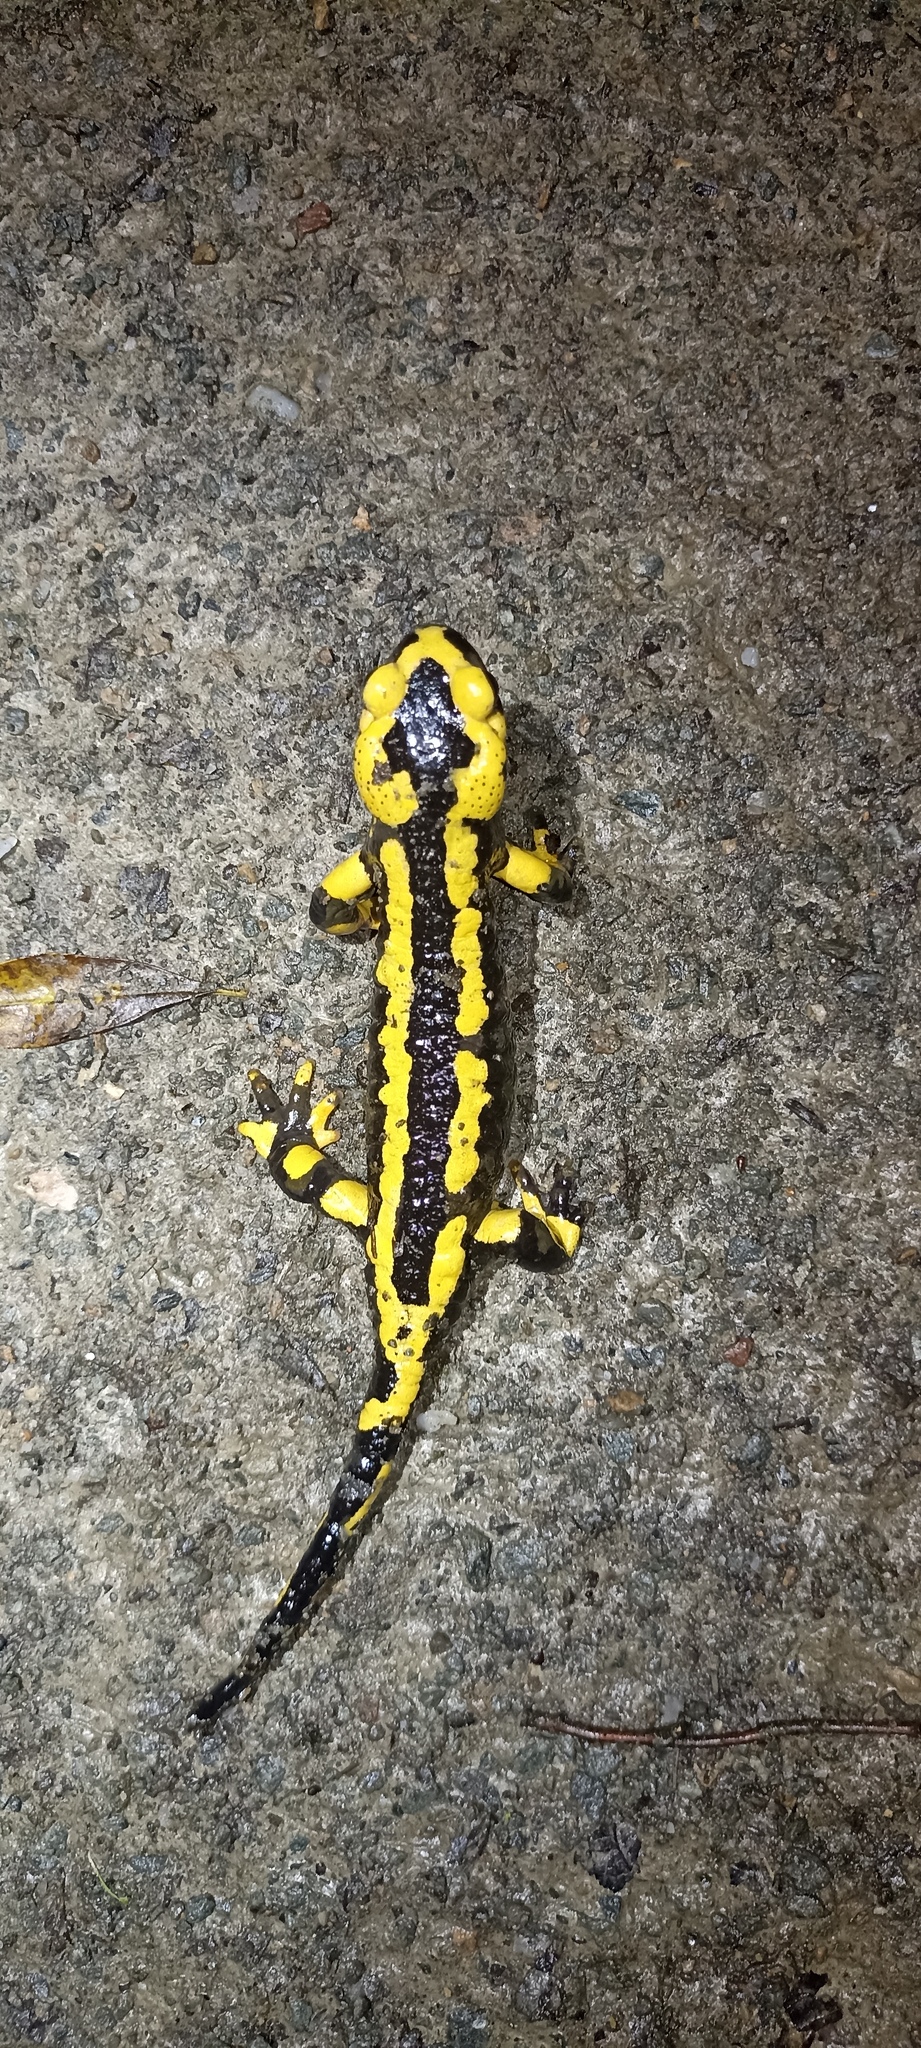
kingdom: Animalia
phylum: Chordata
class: Amphibia
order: Caudata
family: Salamandridae
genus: Salamandra
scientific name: Salamandra salamandra
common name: Fire salamander
